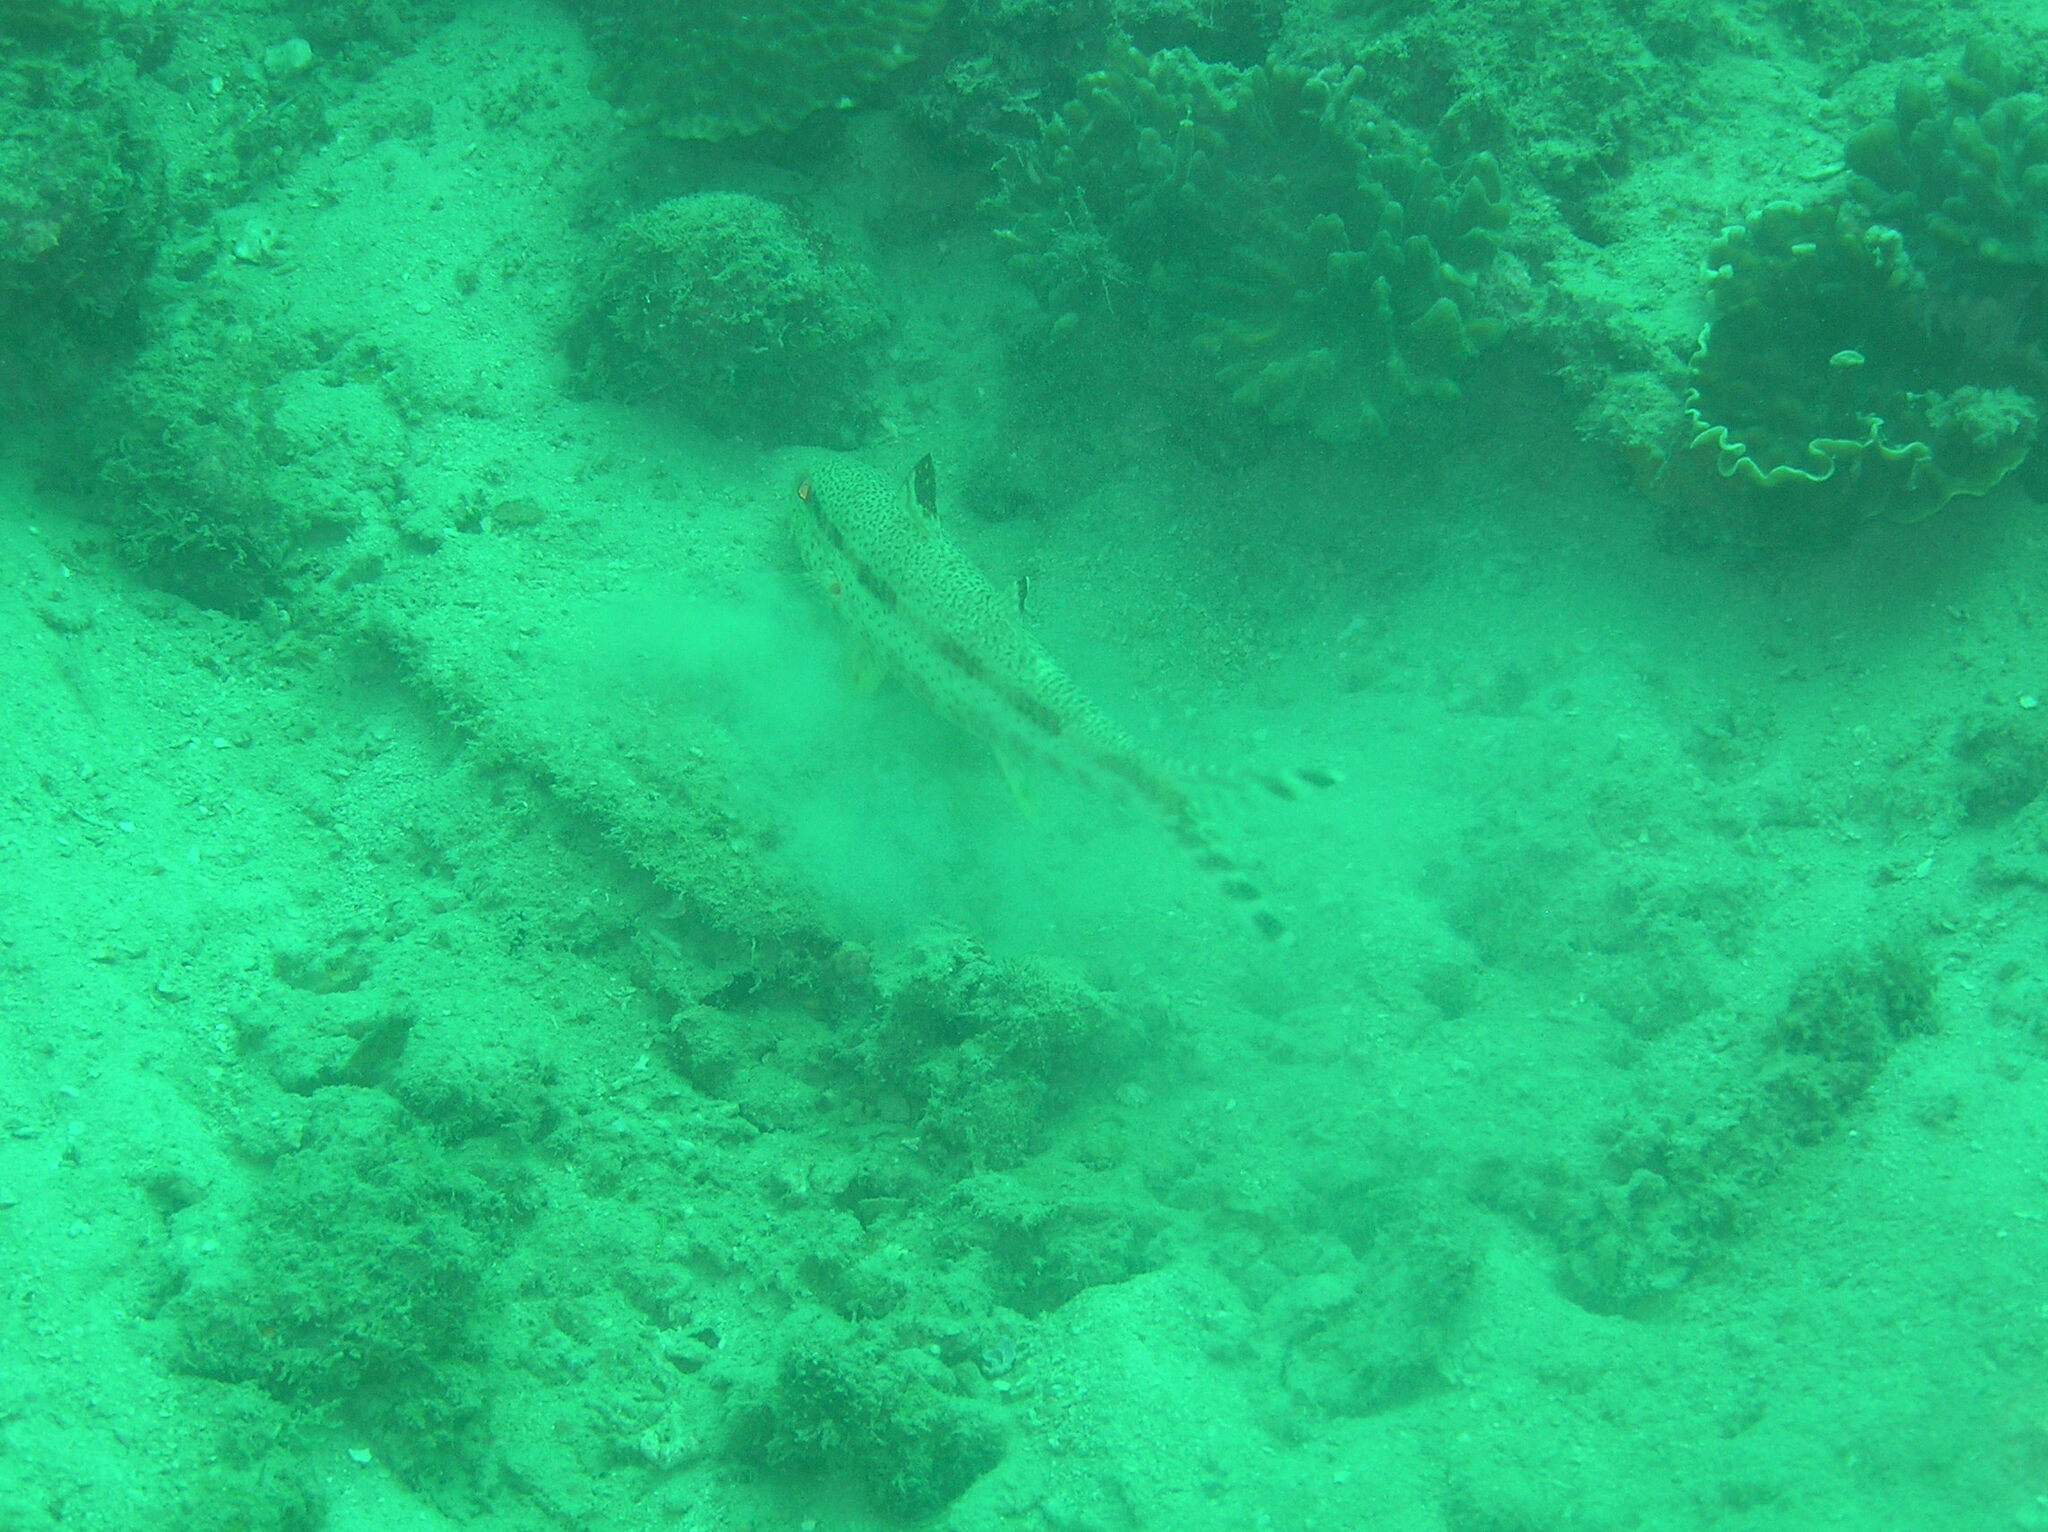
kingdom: Animalia
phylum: Chordata
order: Perciformes
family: Mullidae
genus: Upeneus
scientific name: Upeneus tragula
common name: Freckled goatfish
